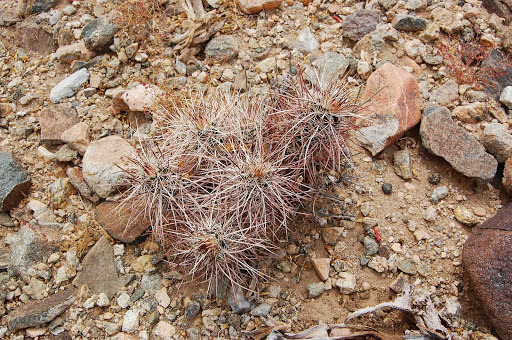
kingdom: Plantae
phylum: Tracheophyta
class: Magnoliopsida
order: Caryophyllales
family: Cactaceae
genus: Echinocereus
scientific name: Echinocereus engelmannii
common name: Engelmann's hedgehog cactus
